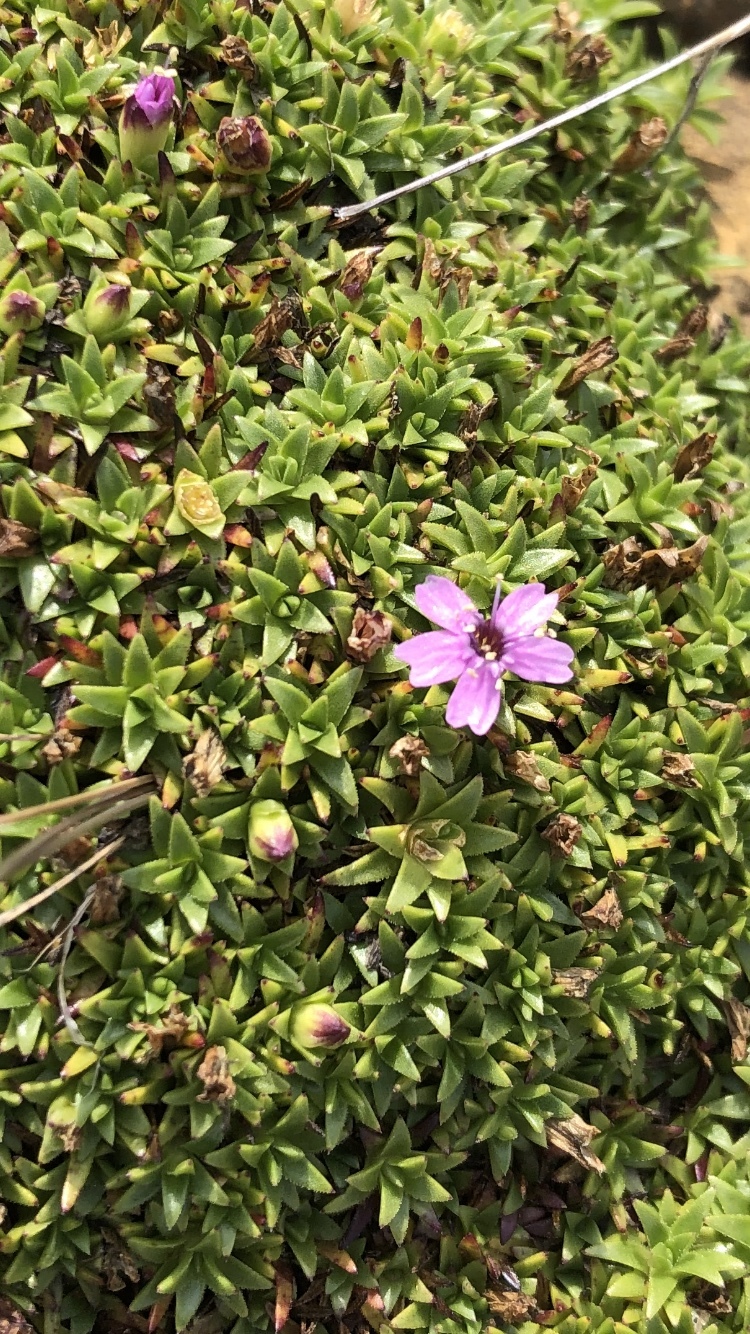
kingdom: Plantae
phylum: Tracheophyta
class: Magnoliopsida
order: Caryophyllales
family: Caryophyllaceae
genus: Silene
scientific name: Silene acaulis
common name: Moss campion
